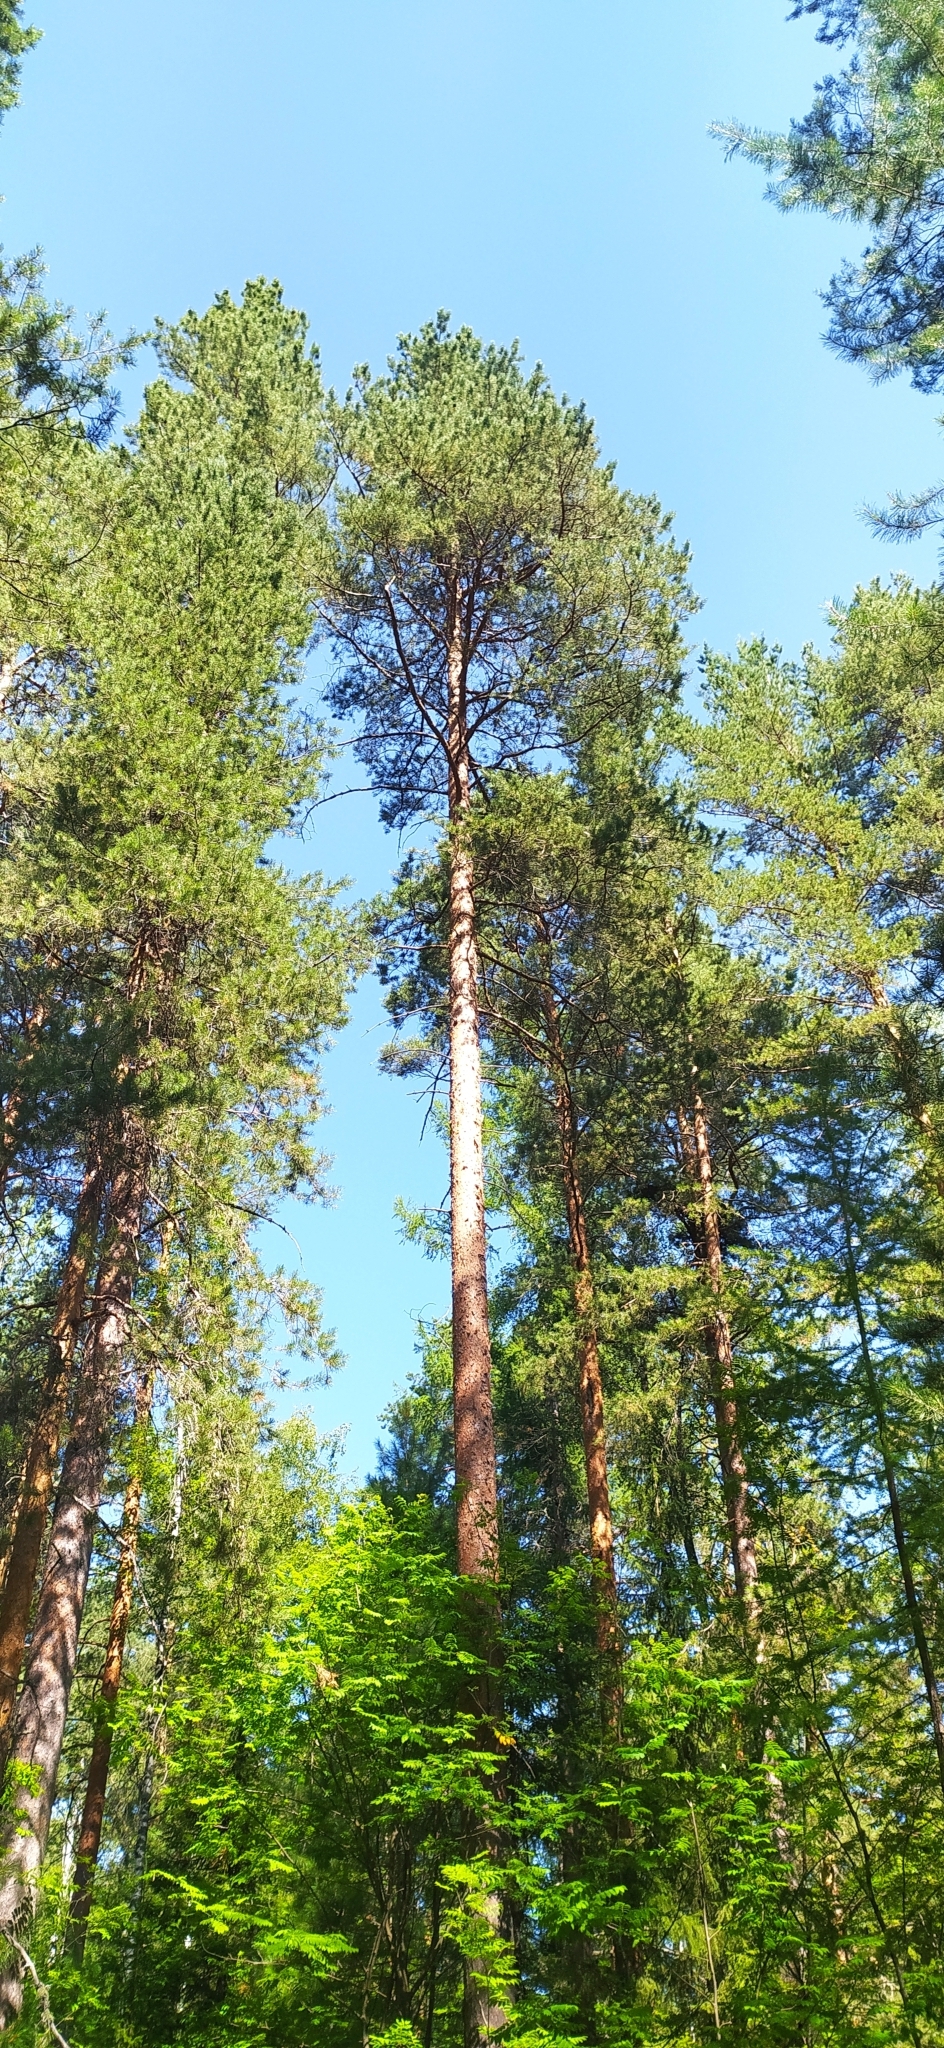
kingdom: Plantae
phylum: Tracheophyta
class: Pinopsida
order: Pinales
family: Pinaceae
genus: Pinus
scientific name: Pinus sylvestris
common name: Scots pine
